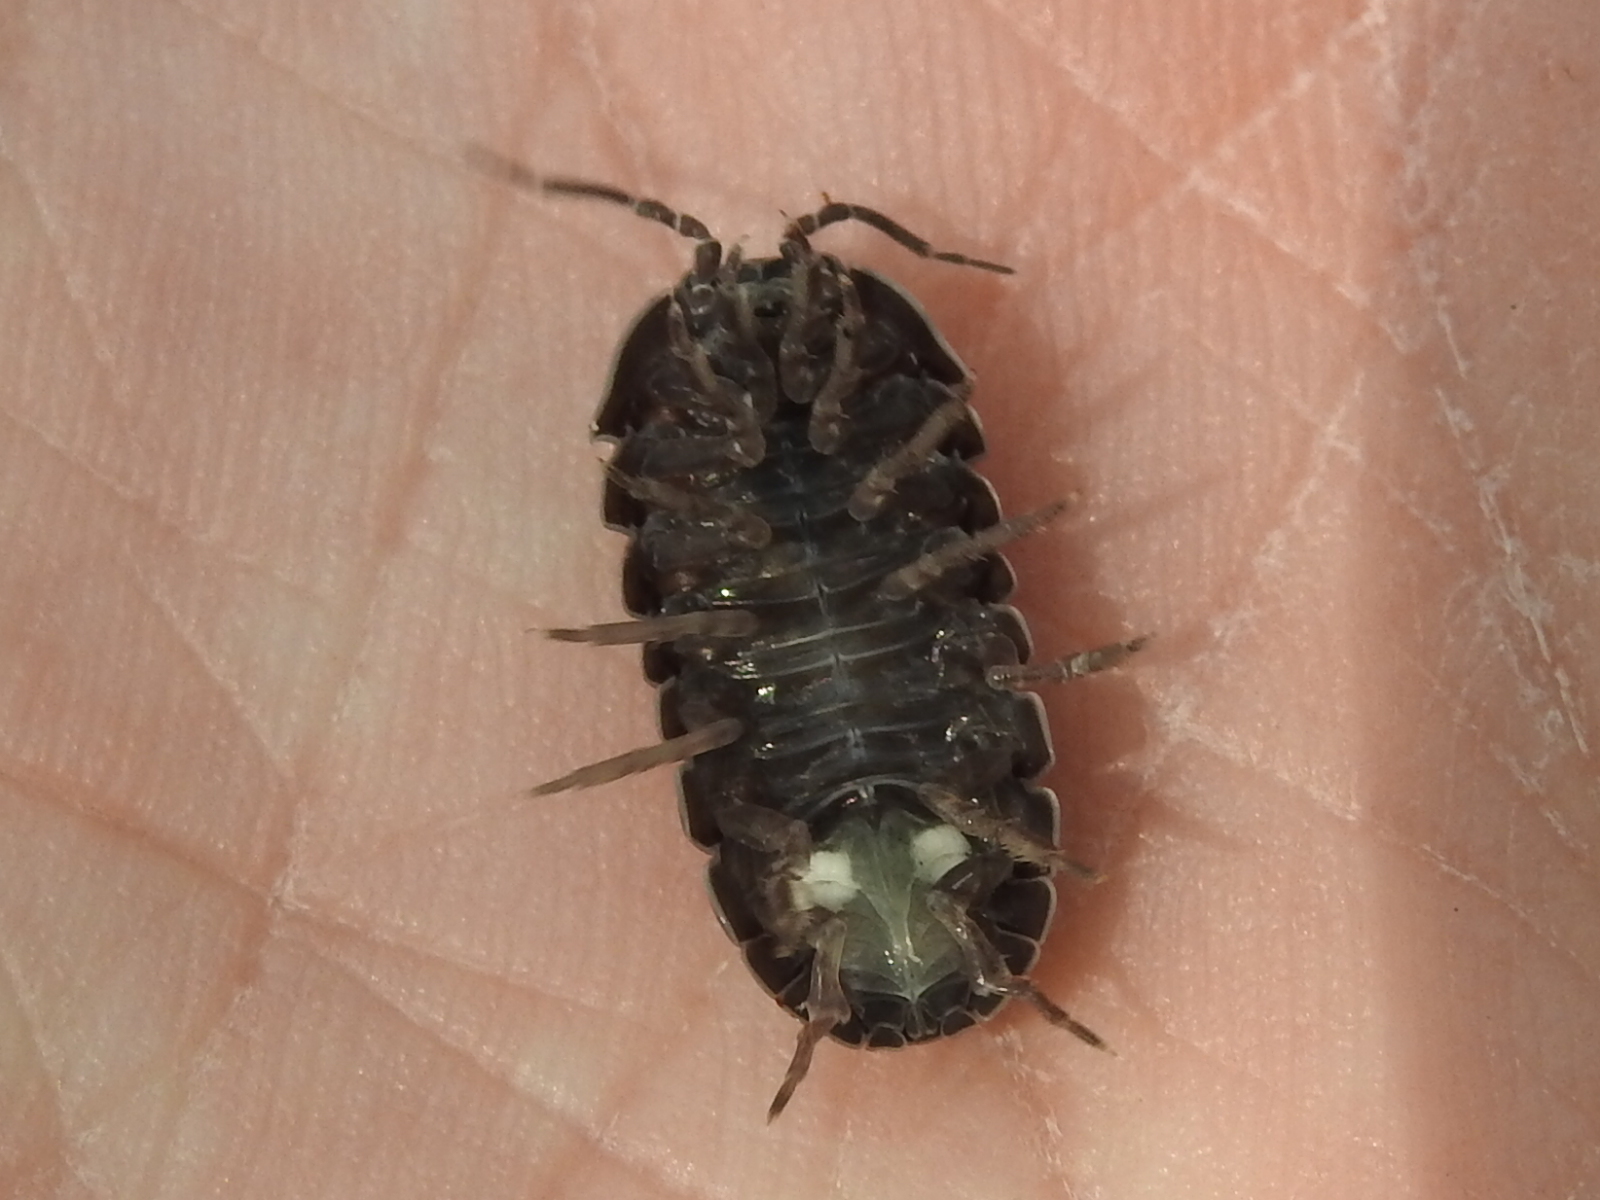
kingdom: Animalia
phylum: Arthropoda
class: Malacostraca
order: Isopoda
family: Armadillidiidae
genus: Armadillidium
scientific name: Armadillidium vulgare
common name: Common pill woodlouse
